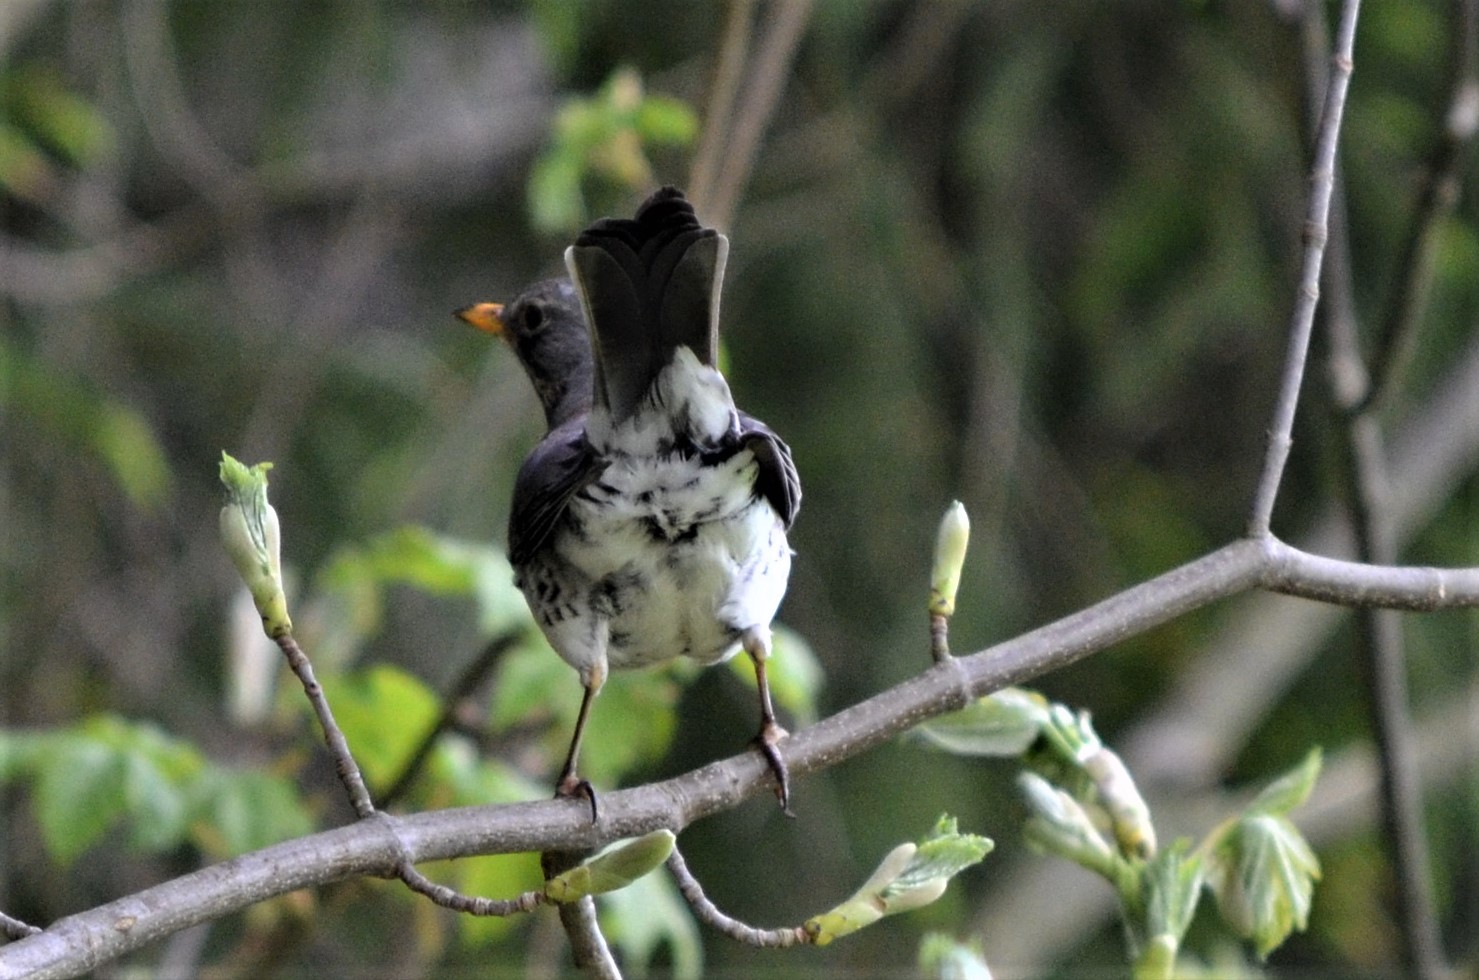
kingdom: Animalia
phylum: Chordata
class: Aves
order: Passeriformes
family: Turdidae
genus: Turdus
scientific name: Turdus pilaris
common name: Fieldfare
